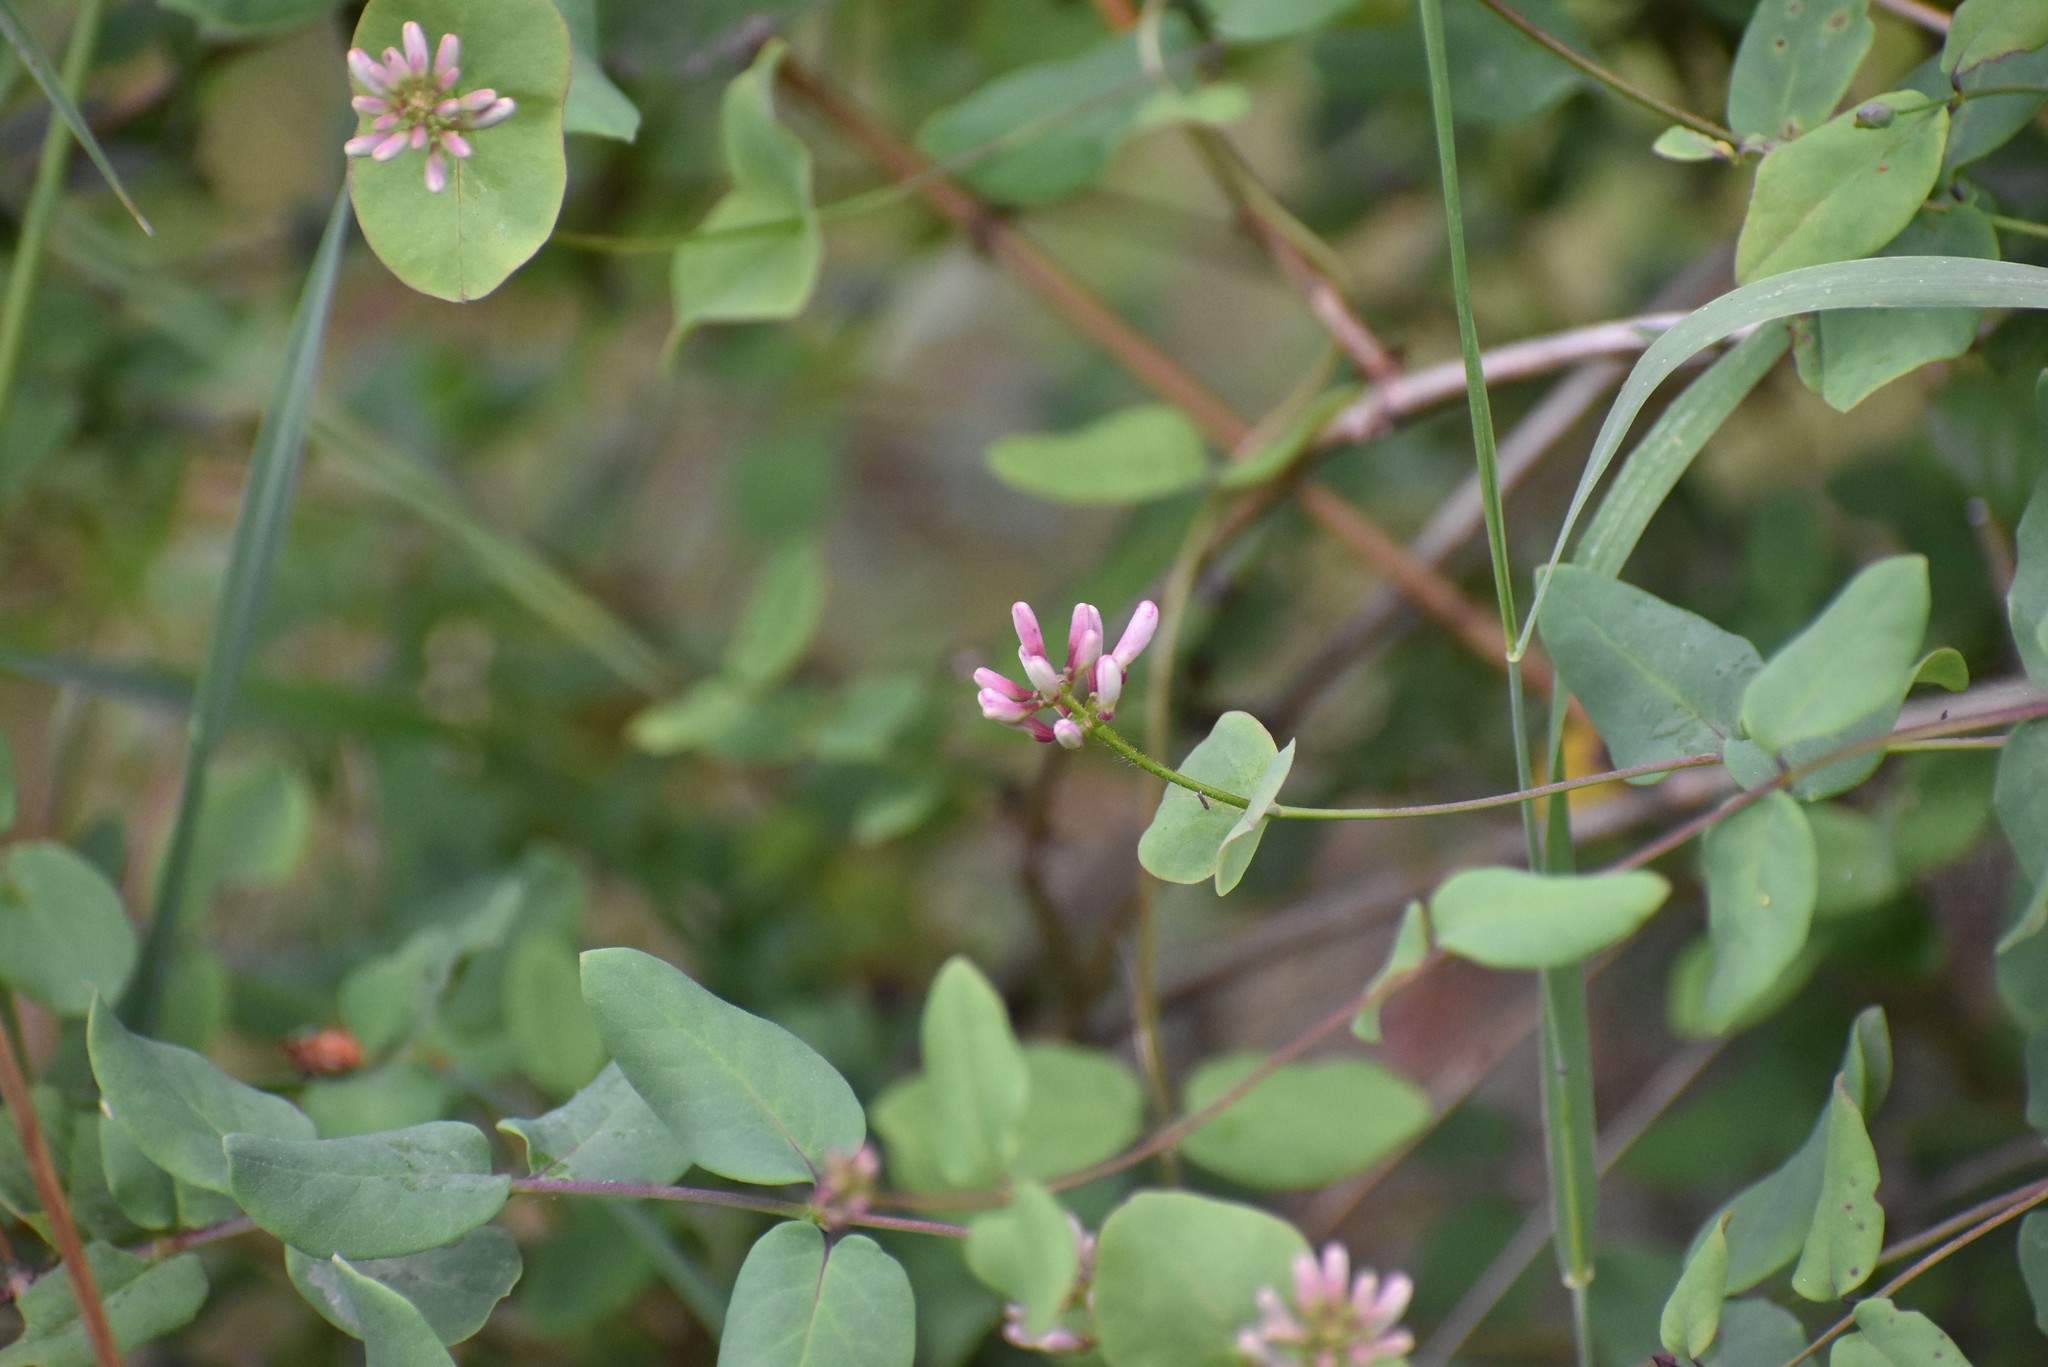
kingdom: Plantae
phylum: Tracheophyta
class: Magnoliopsida
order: Dipsacales
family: Caprifoliaceae
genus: Lonicera
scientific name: Lonicera hispidula
